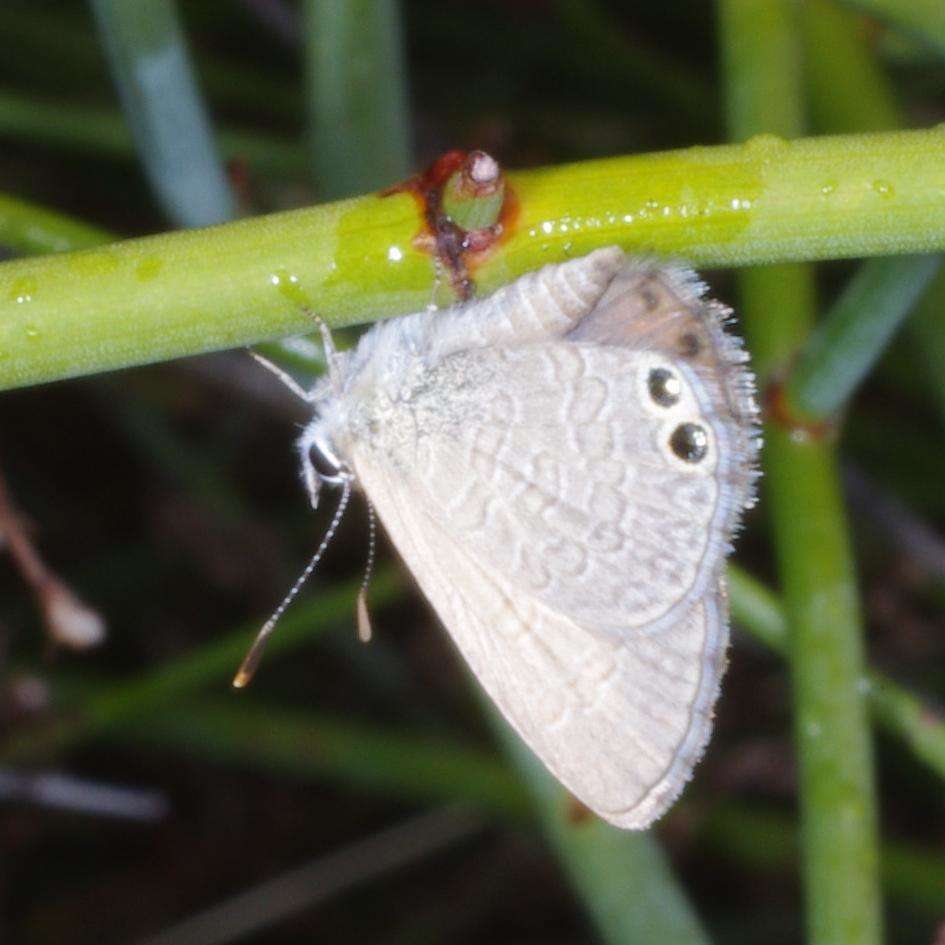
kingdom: Animalia
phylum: Arthropoda
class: Insecta
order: Lepidoptera
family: Lycaenidae
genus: Nacaduba
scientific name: Nacaduba biocellata
